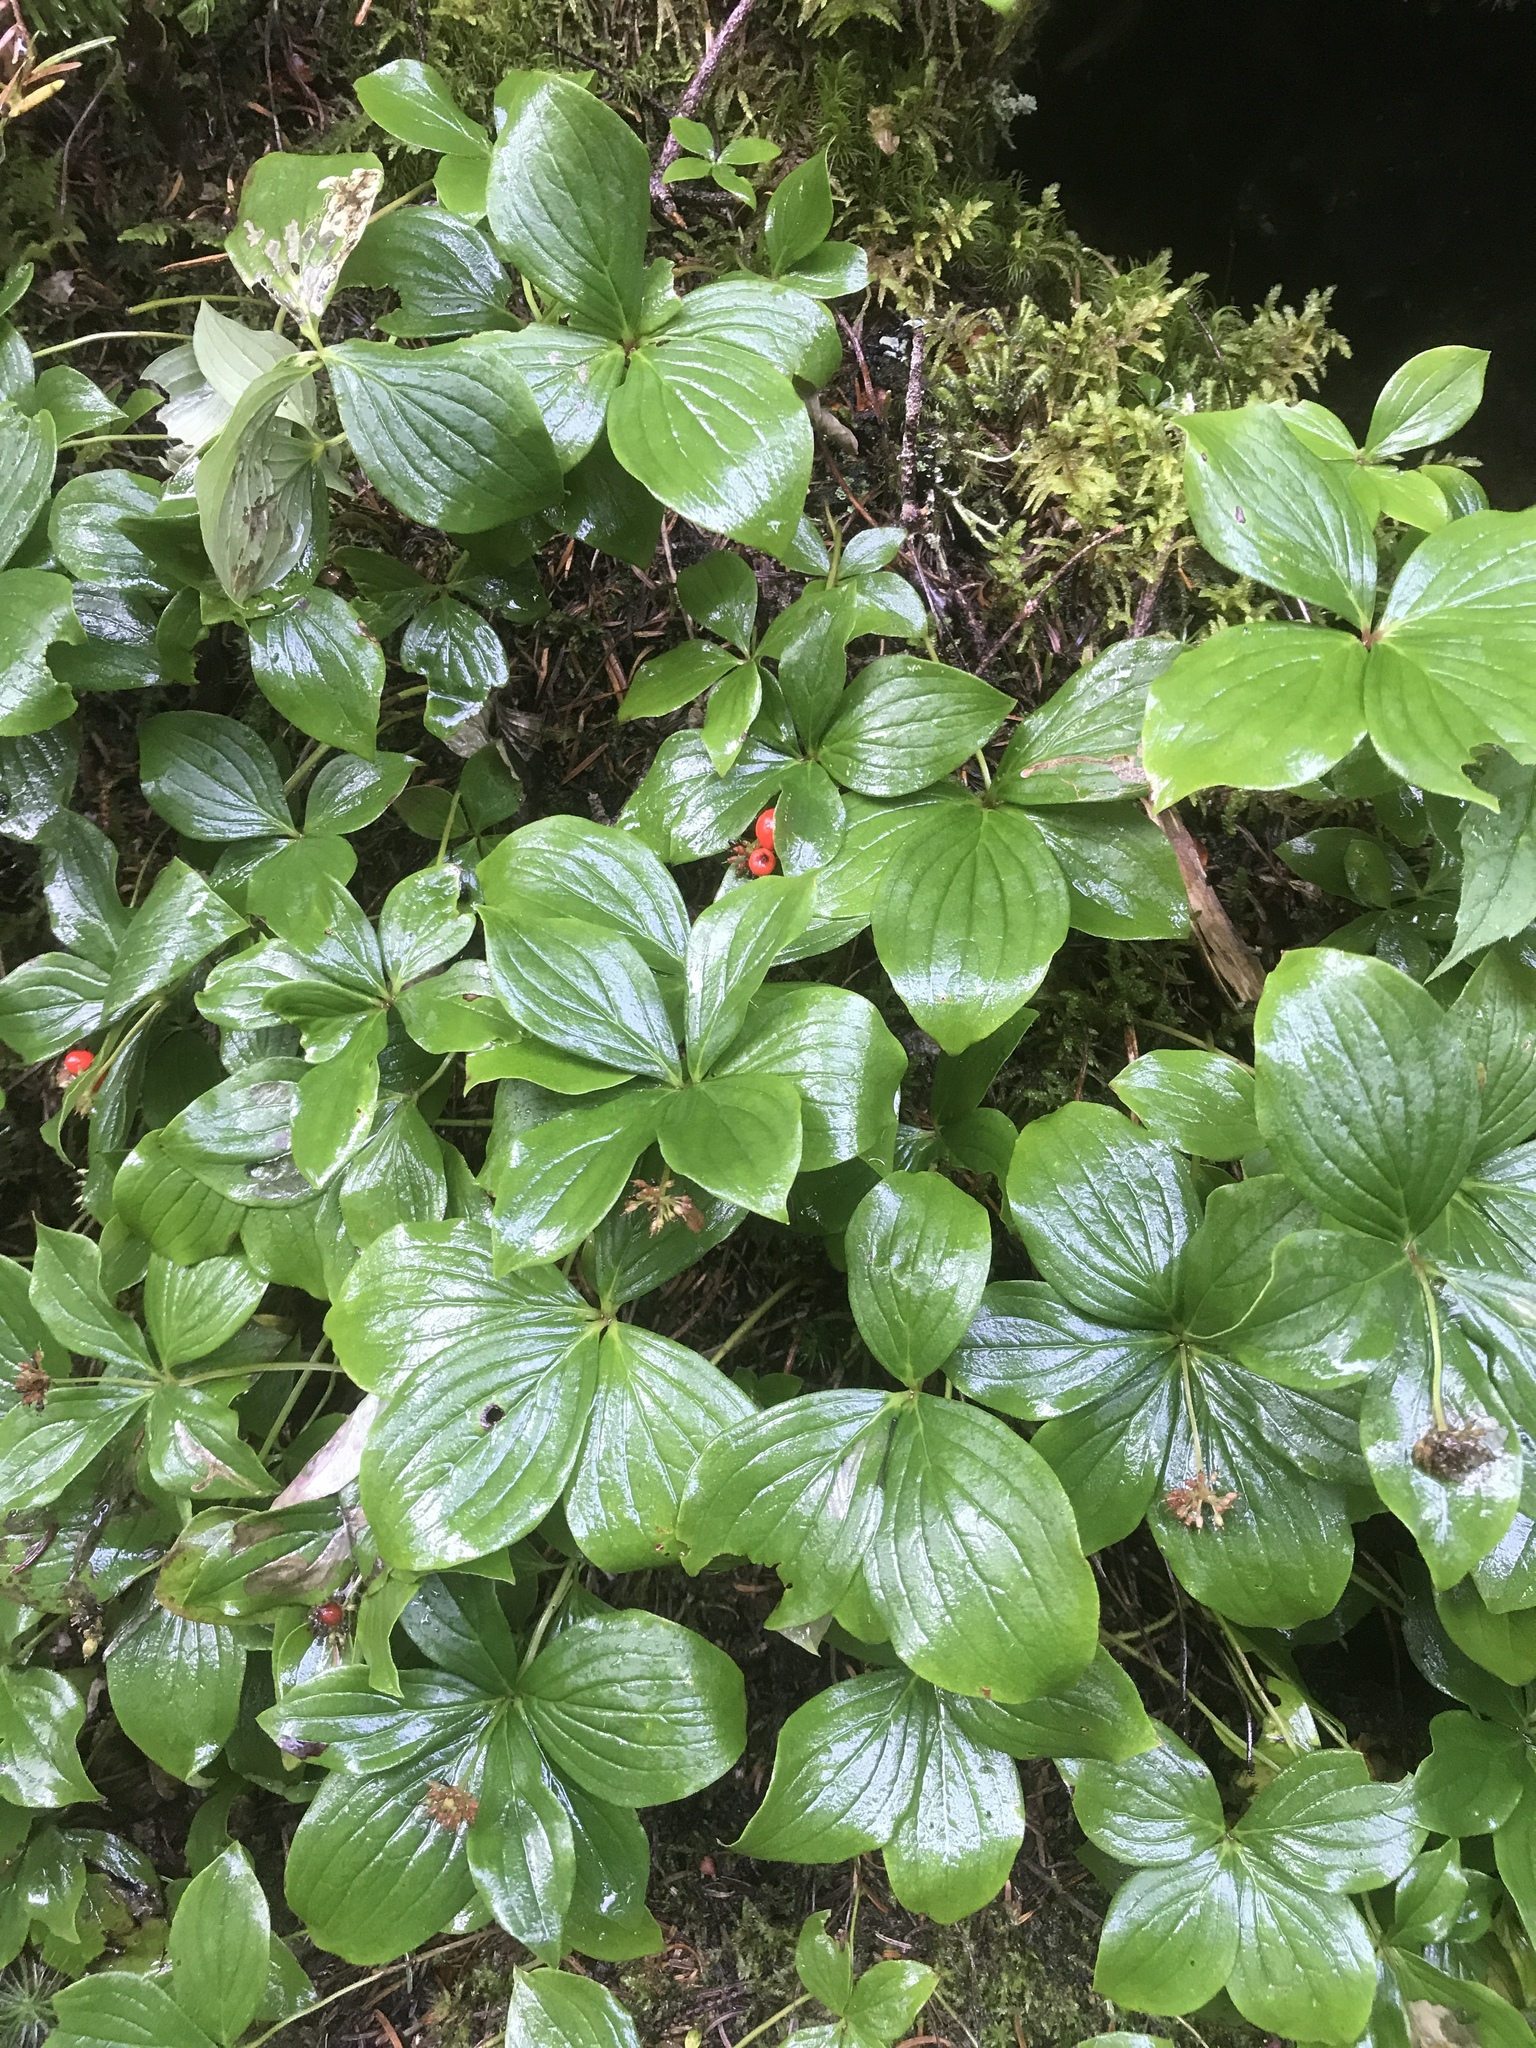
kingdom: Plantae
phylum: Tracheophyta
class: Magnoliopsida
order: Cornales
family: Cornaceae
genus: Cornus
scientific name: Cornus canadensis
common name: Creeping dogwood
